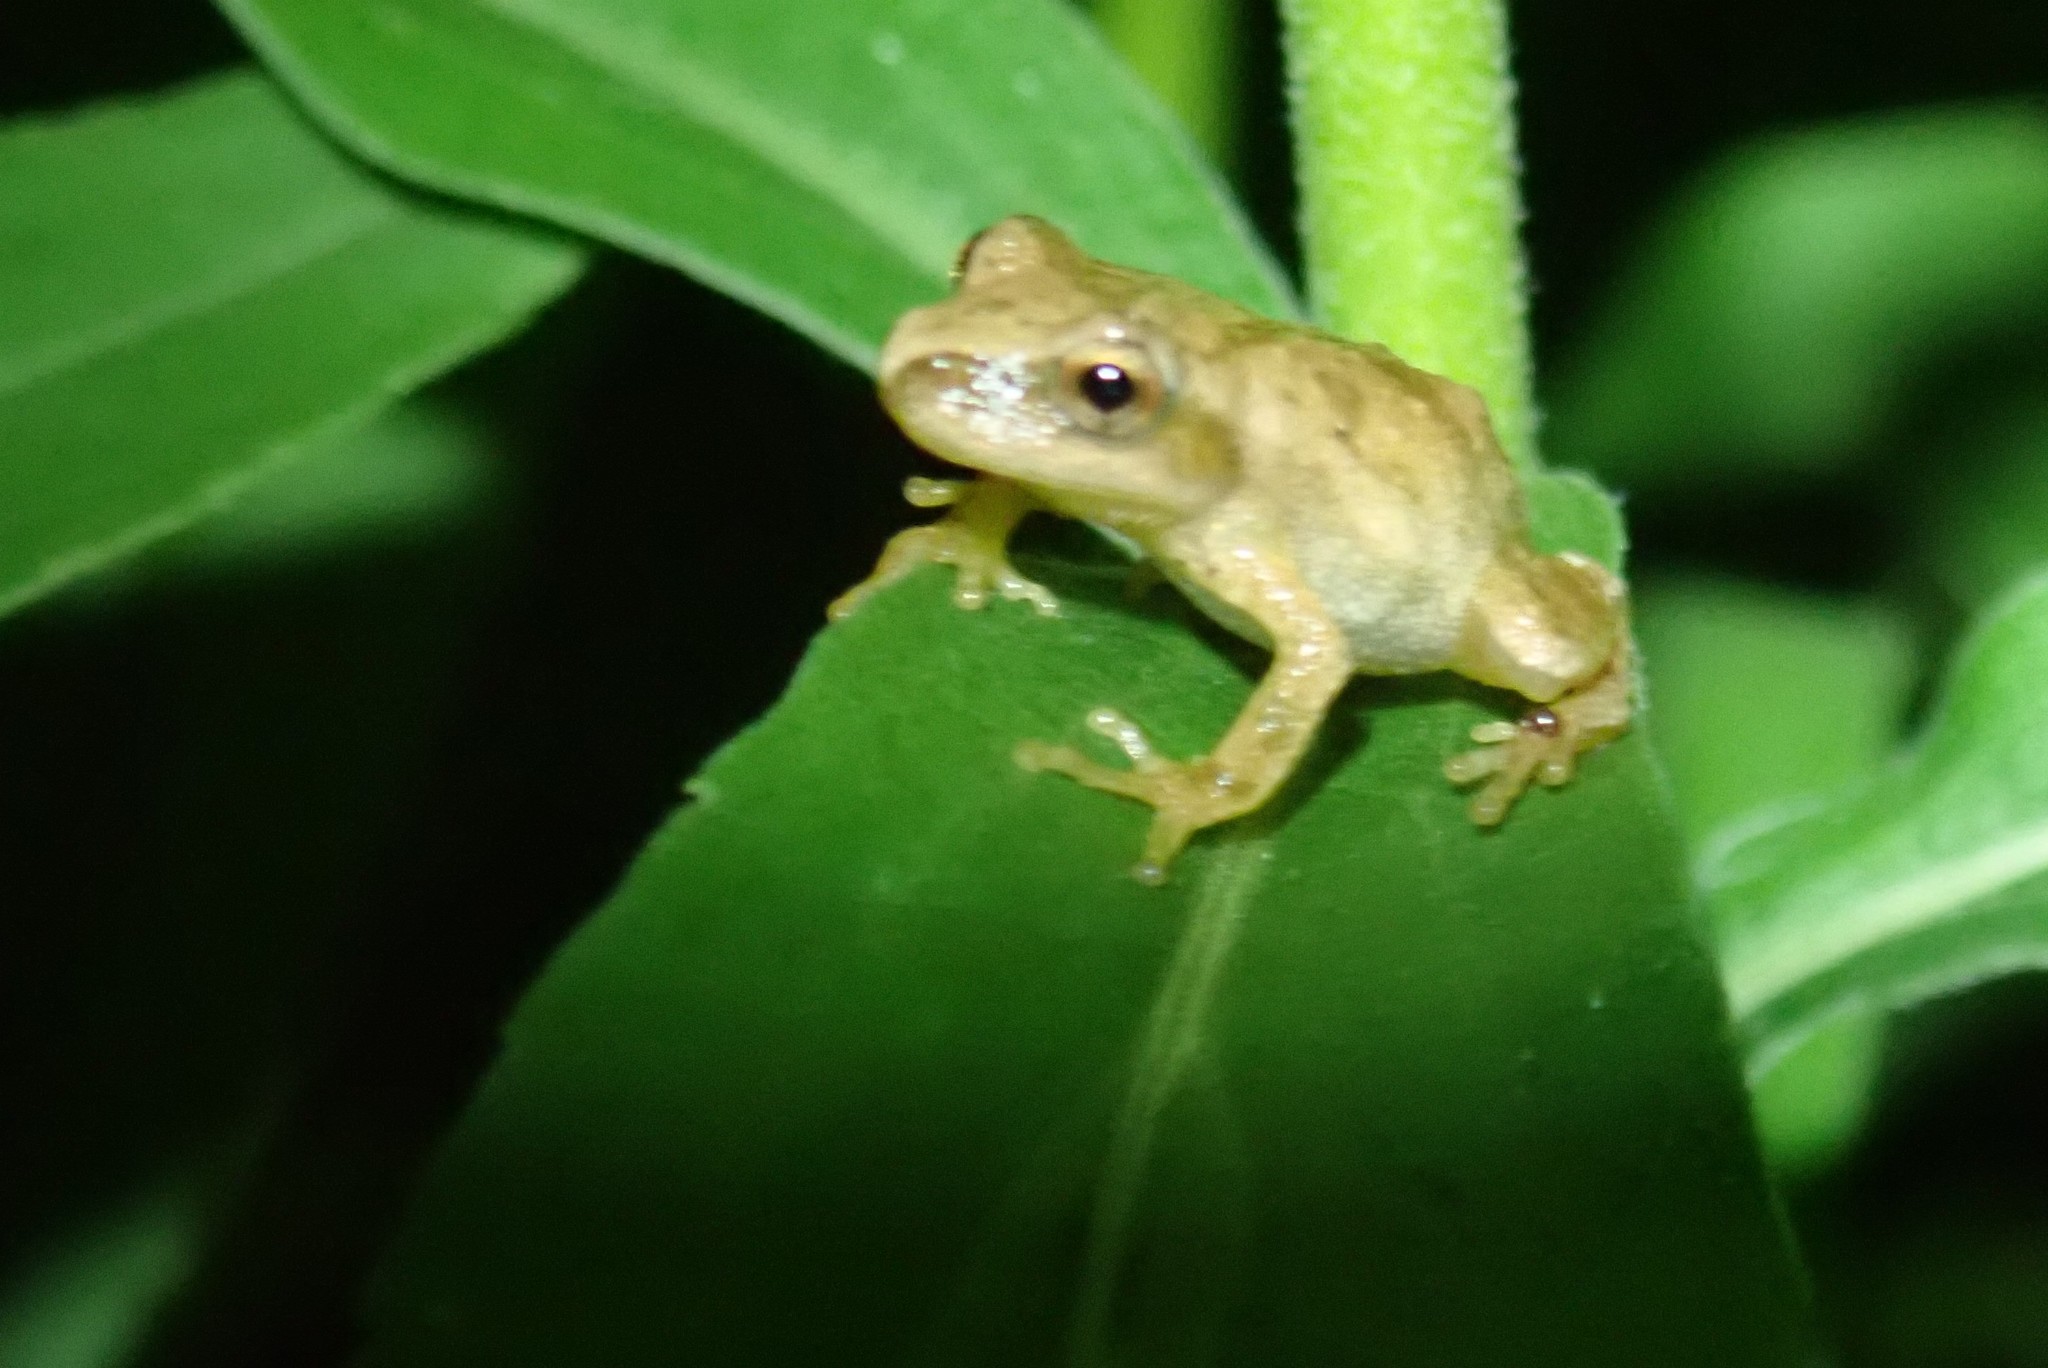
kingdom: Animalia
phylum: Chordata
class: Amphibia
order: Anura
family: Hylidae
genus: Pseudacris
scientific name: Pseudacris crucifer
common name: Spring peeper
